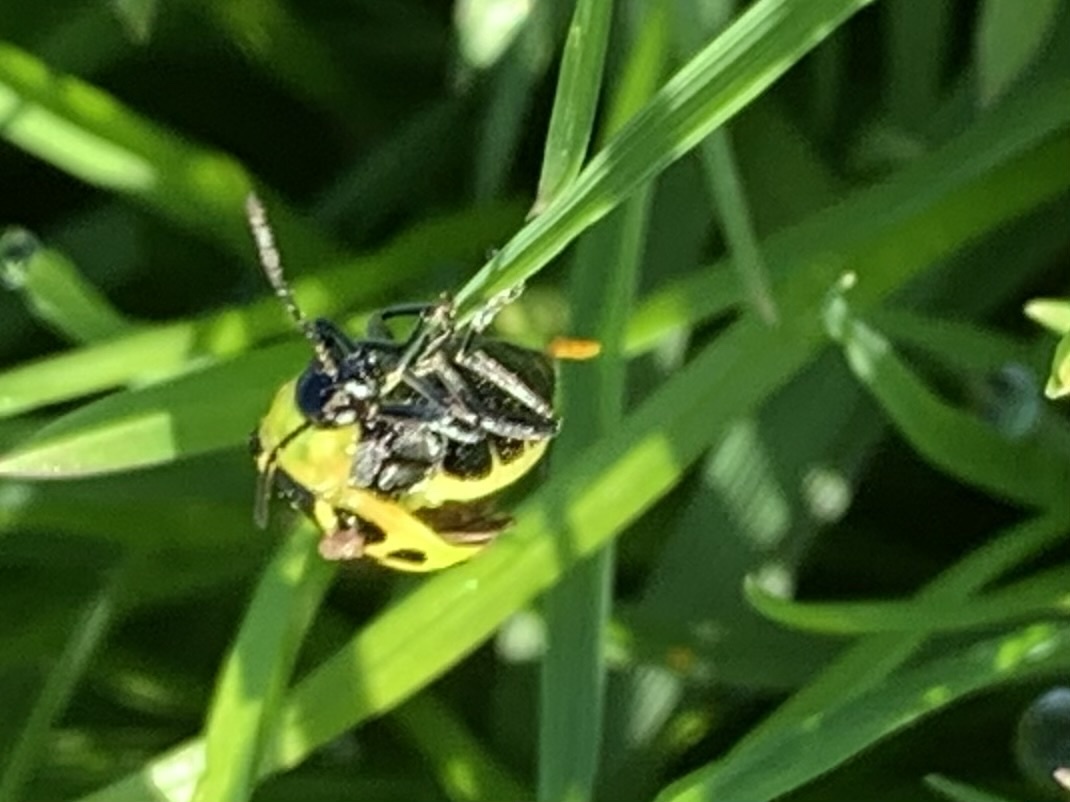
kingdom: Animalia
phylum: Arthropoda
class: Insecta
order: Coleoptera
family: Chrysomelidae
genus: Diabrotica
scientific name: Diabrotica undecimpunctata
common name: Spotted cucumber beetle
